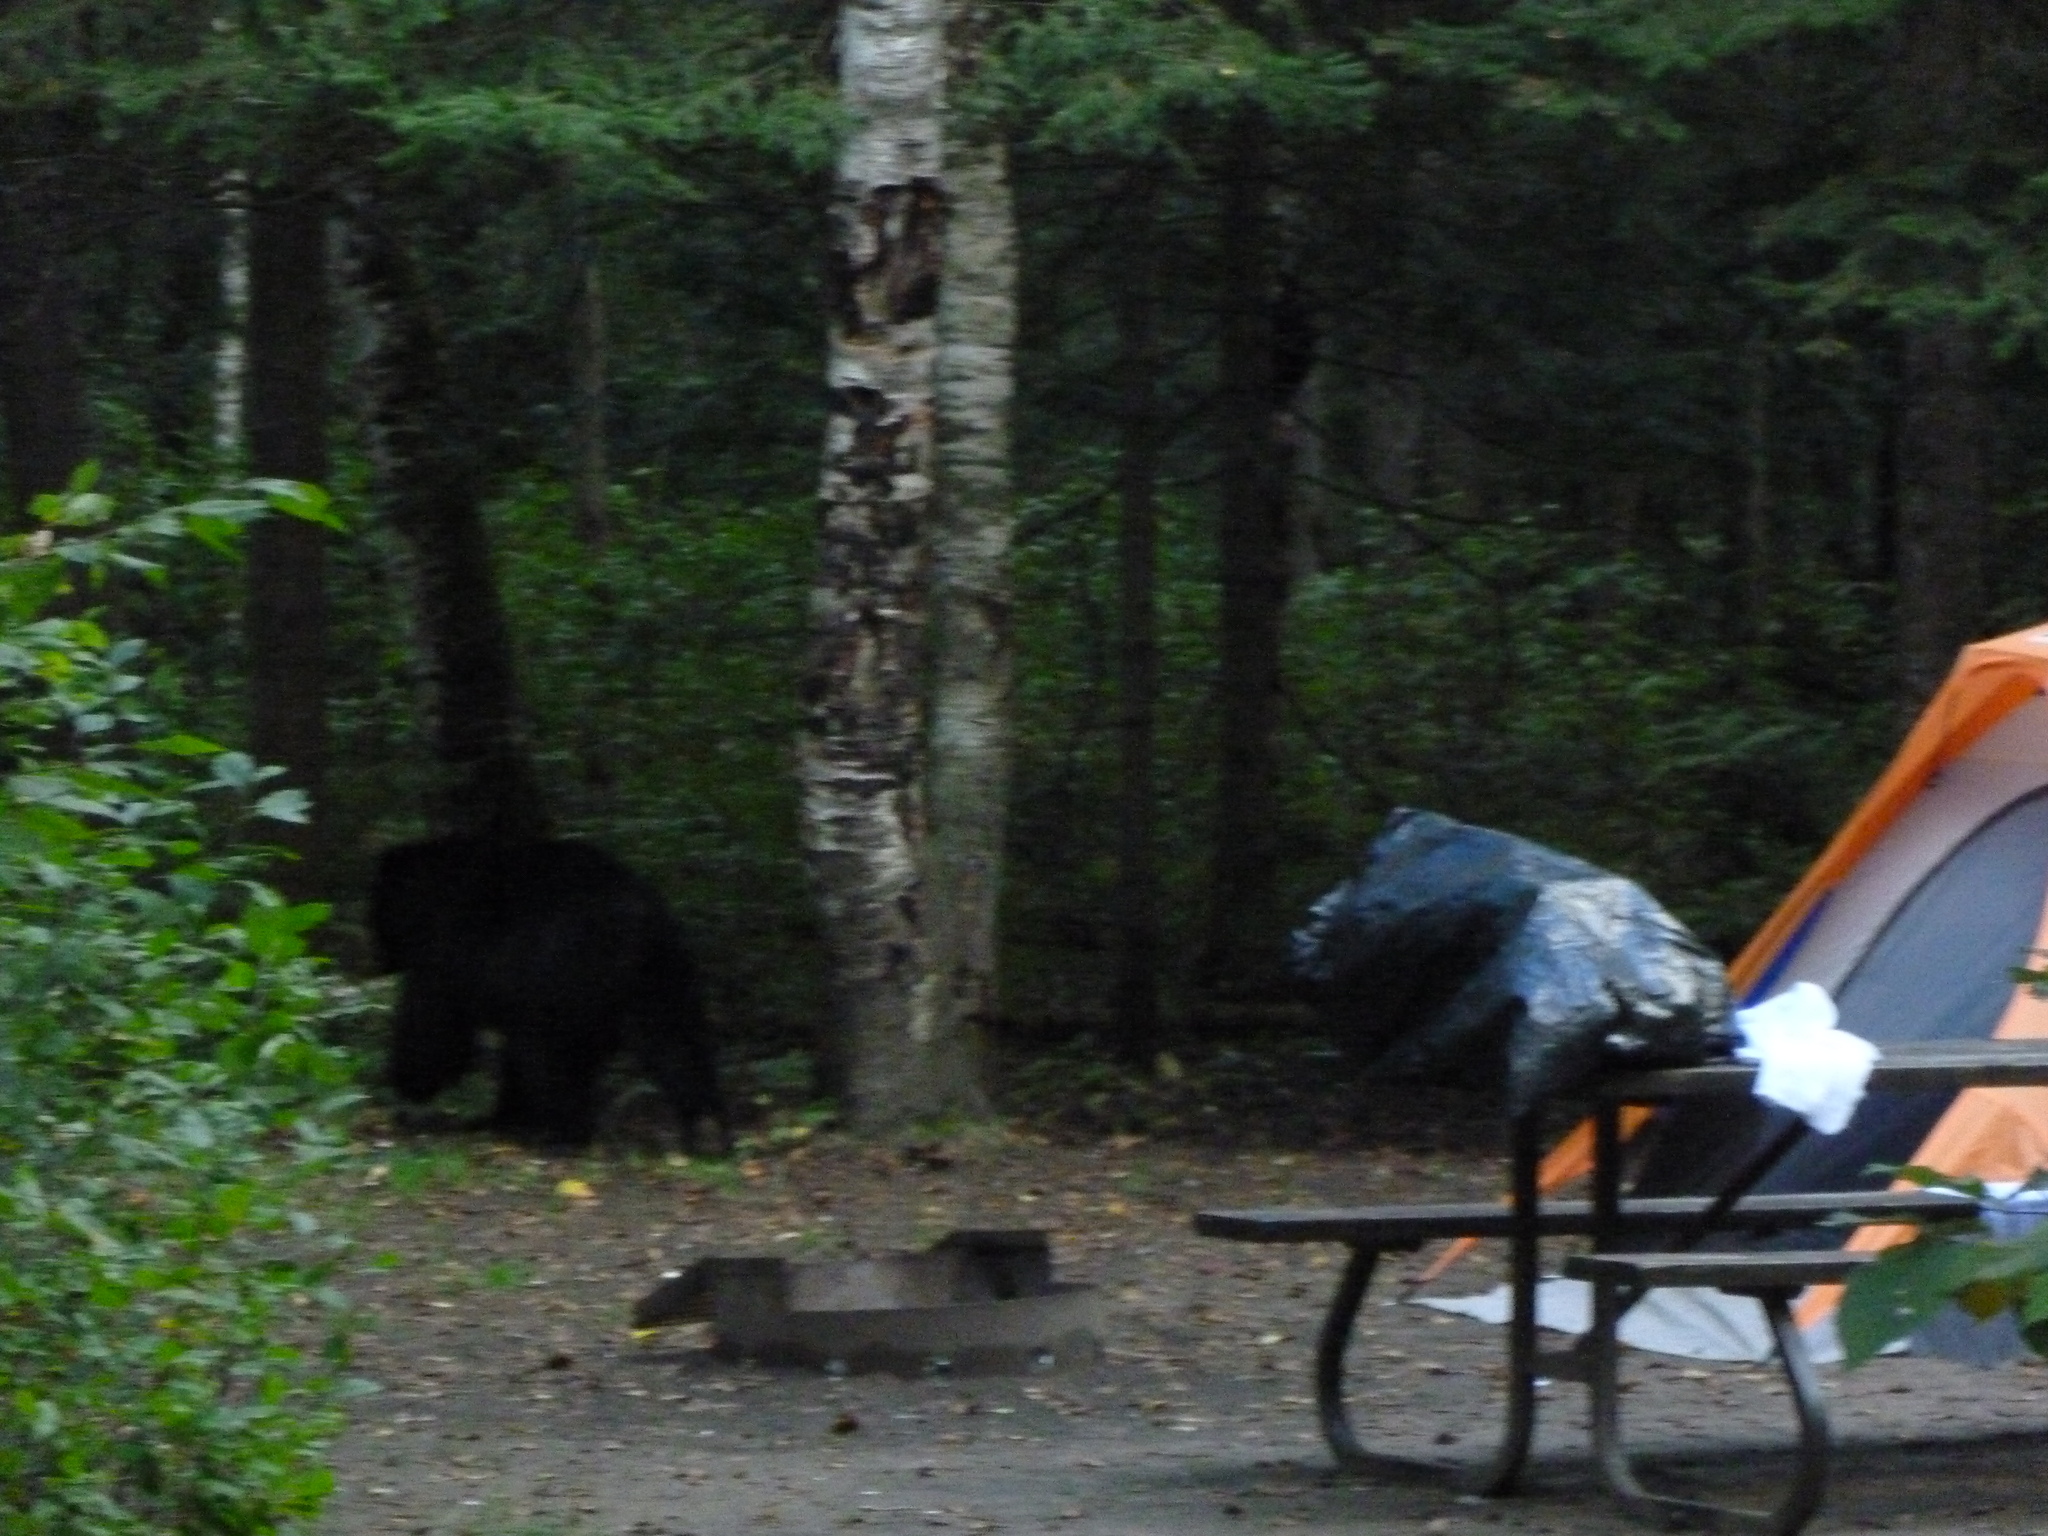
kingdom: Animalia
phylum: Chordata
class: Mammalia
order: Carnivora
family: Ursidae
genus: Ursus
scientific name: Ursus americanus
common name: American black bear
